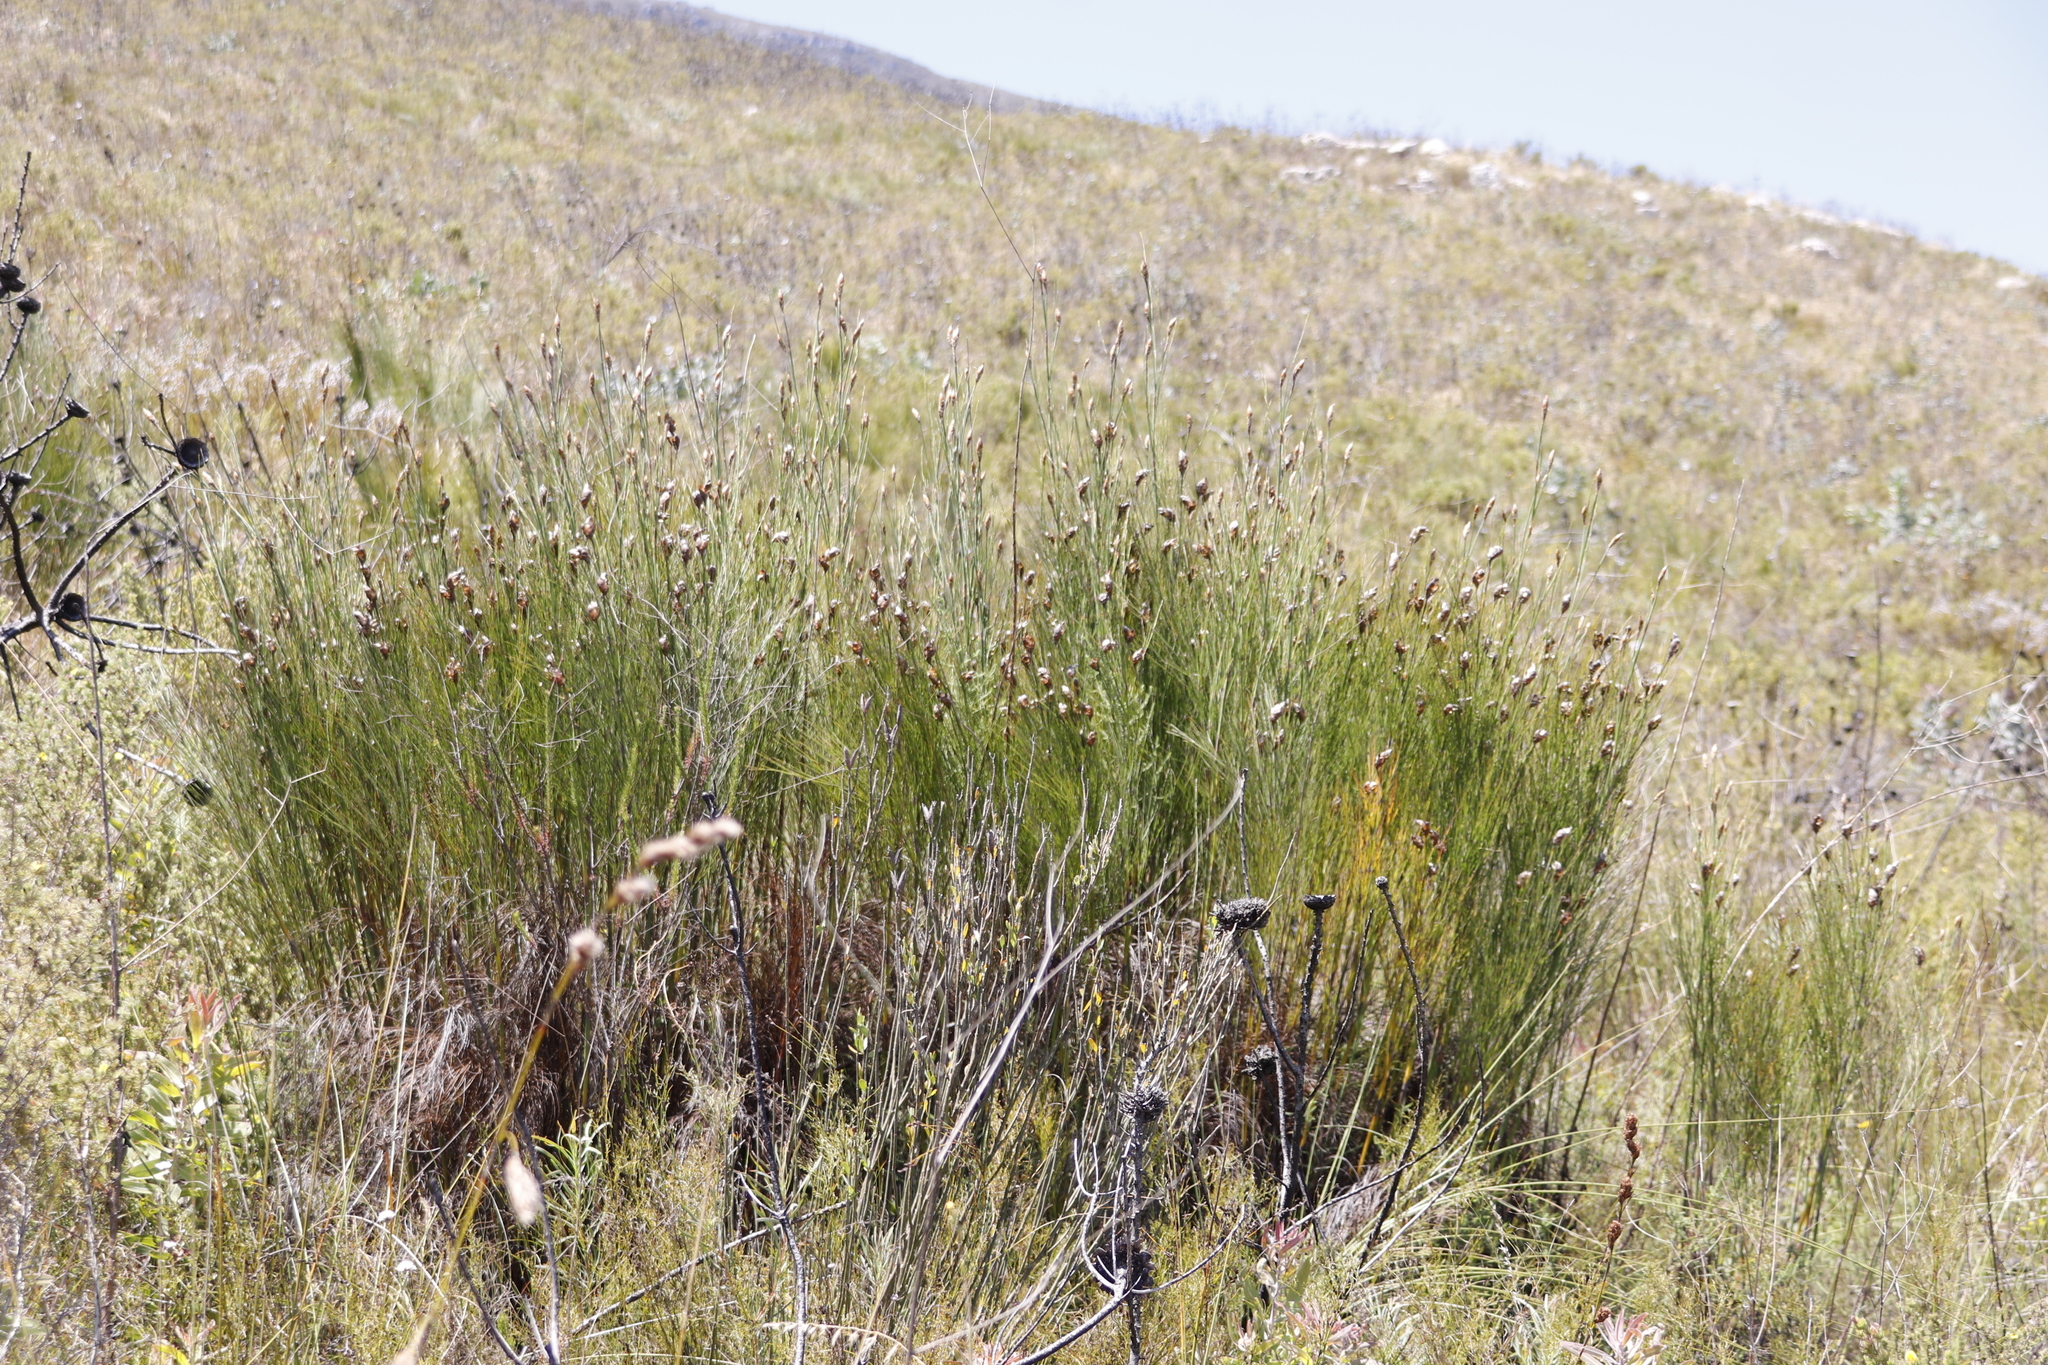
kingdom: Plantae
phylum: Tracheophyta
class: Liliopsida
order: Poales
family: Restionaceae
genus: Cannomois
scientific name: Cannomois virgata
